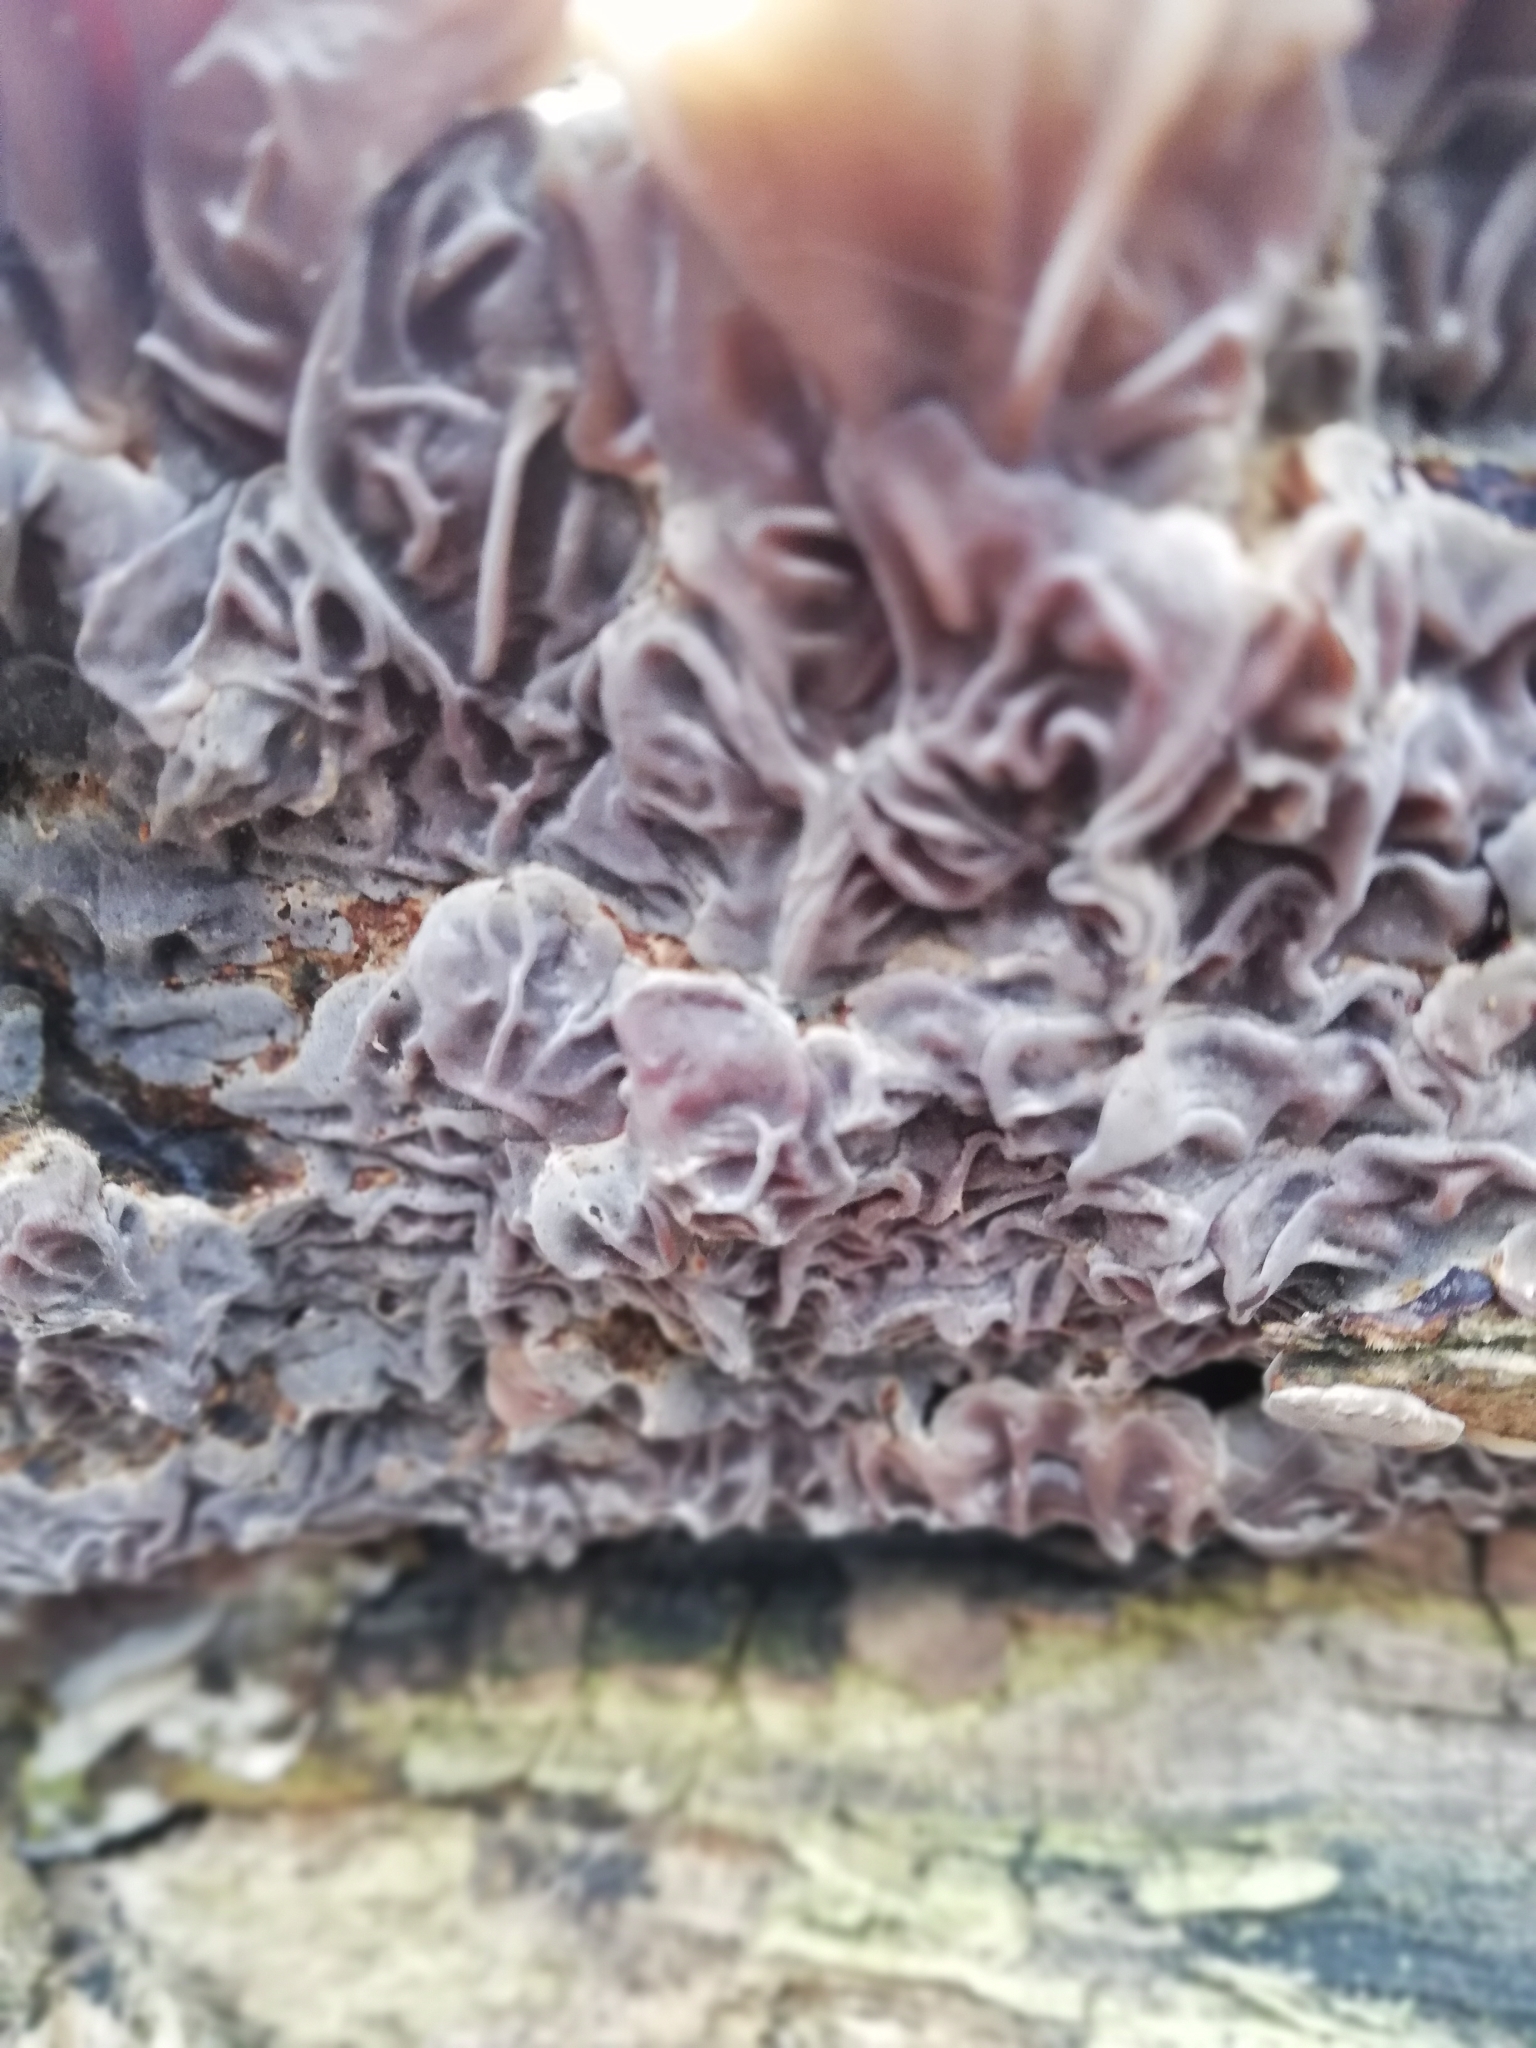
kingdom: Fungi
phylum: Basidiomycota
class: Agaricomycetes
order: Auriculariales
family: Auriculariaceae
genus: Auricularia
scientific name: Auricularia mesenterica
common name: Tripe fungus
